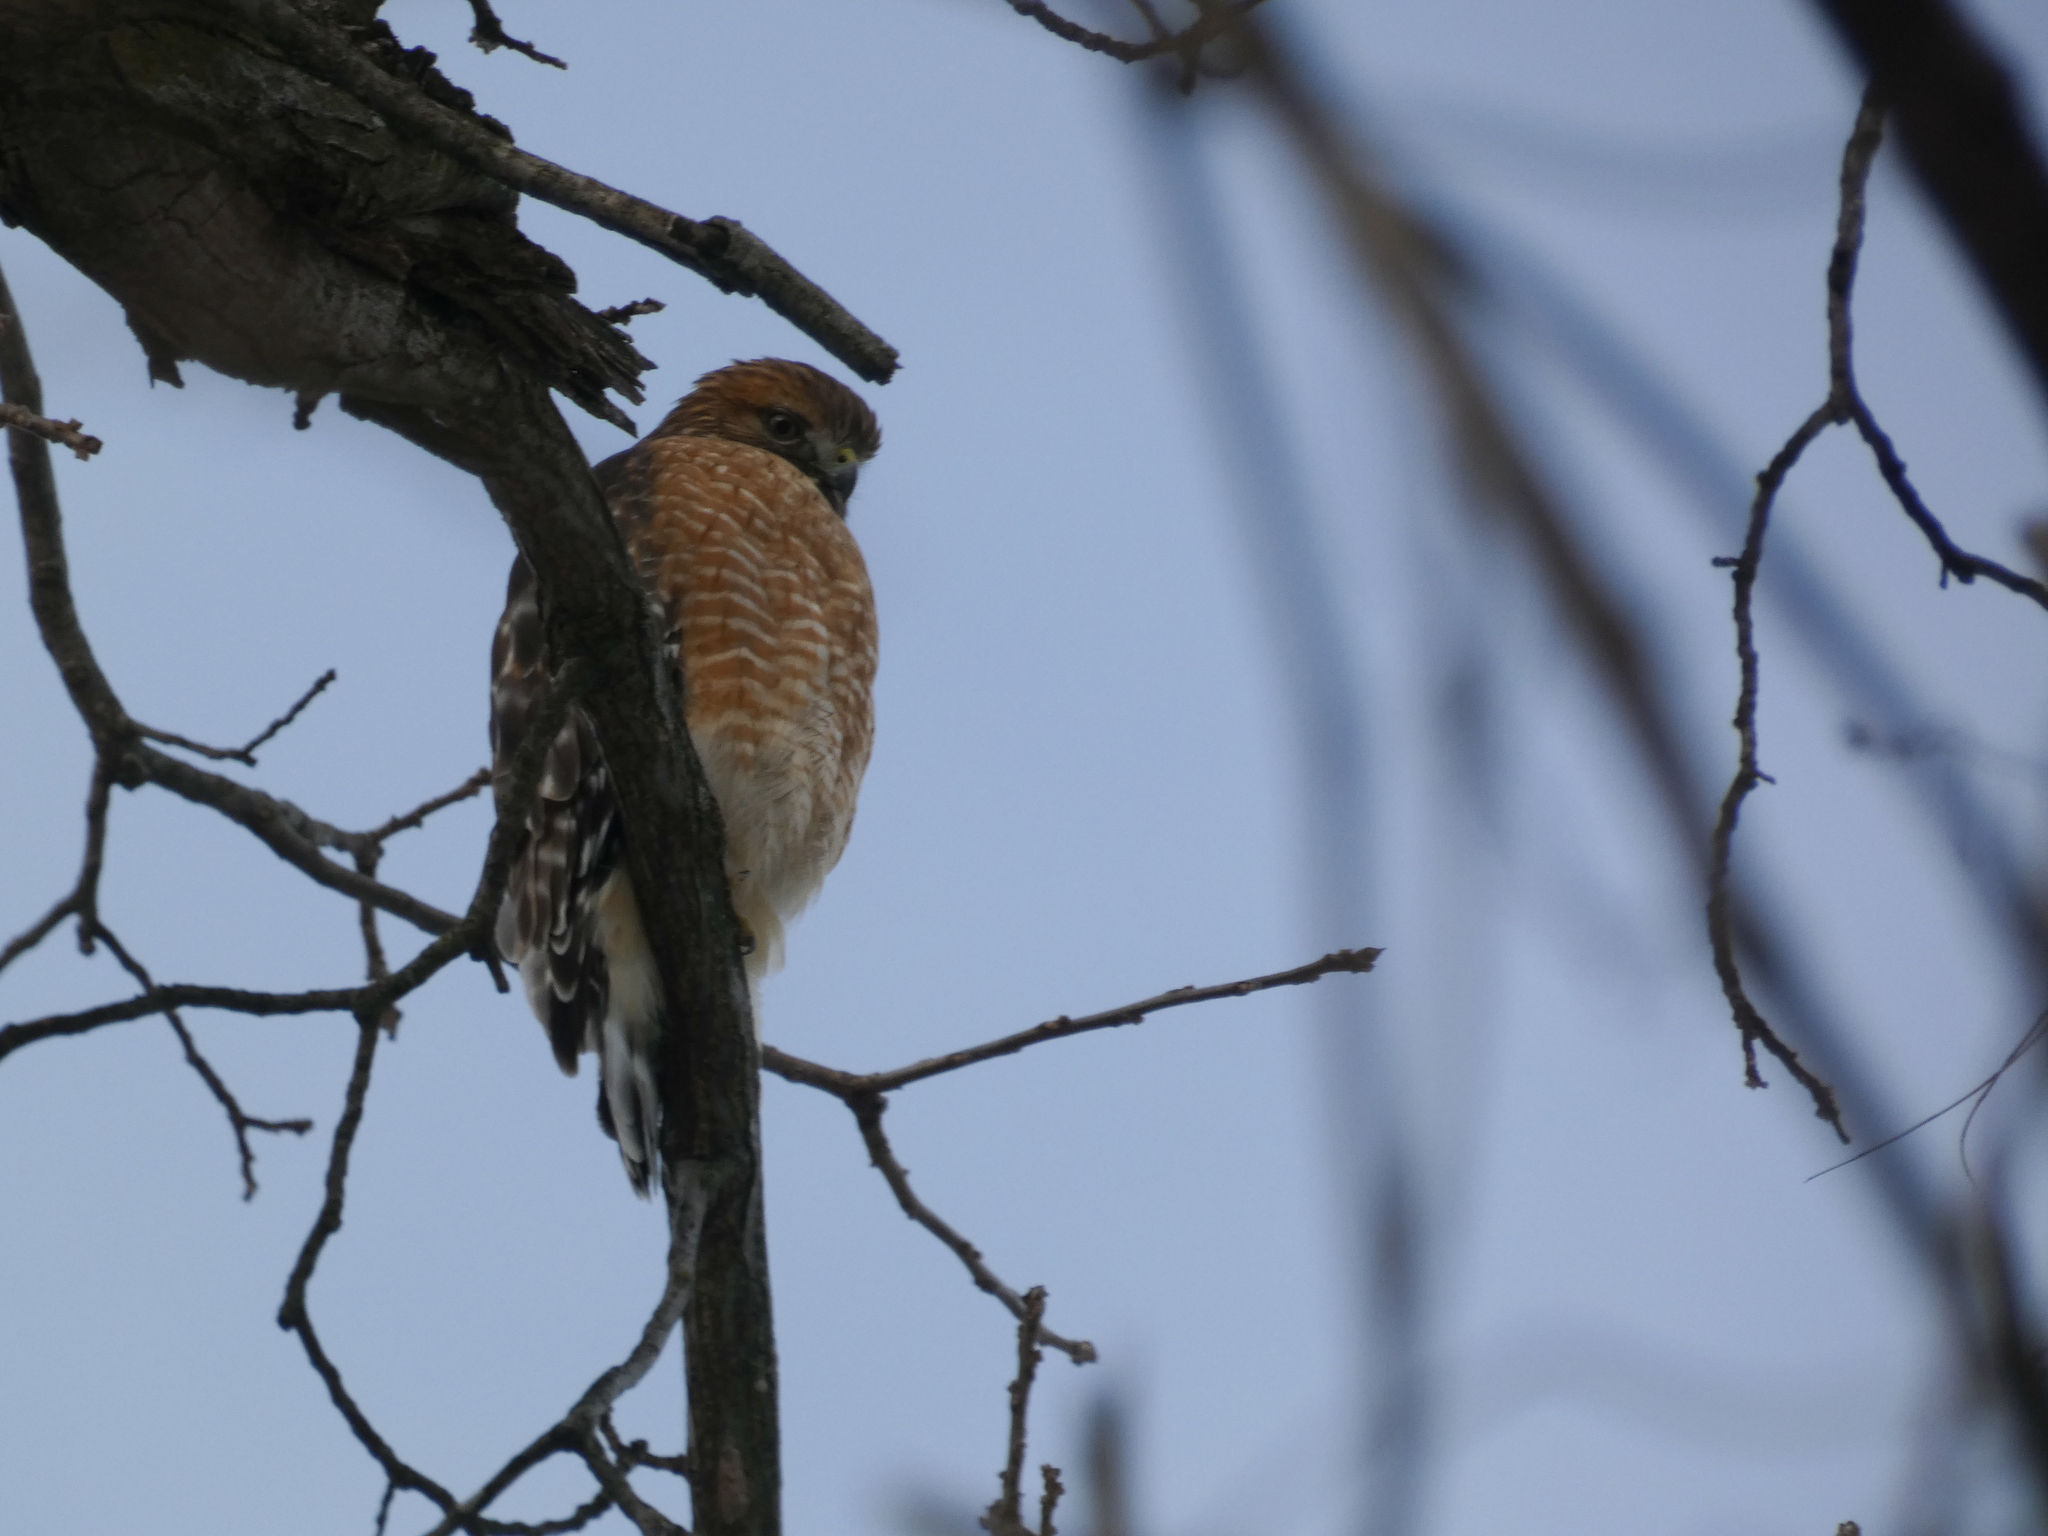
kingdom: Animalia
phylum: Chordata
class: Aves
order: Accipitriformes
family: Accipitridae
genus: Buteo
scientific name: Buteo lineatus
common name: Red-shouldered hawk
